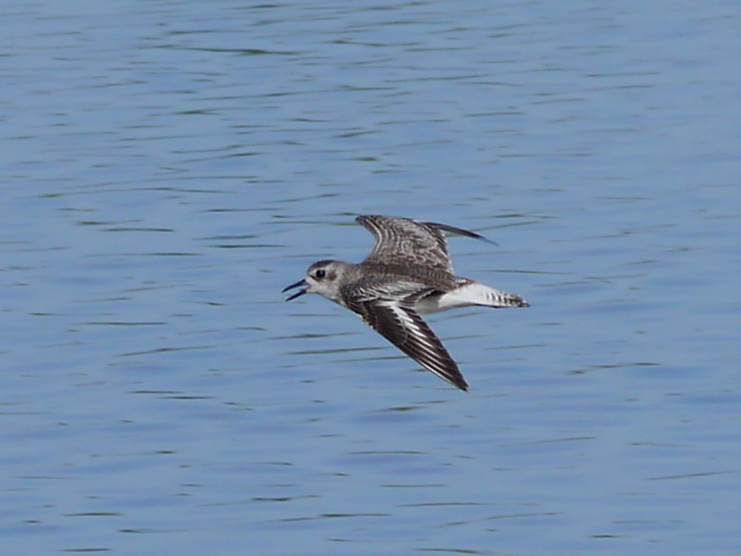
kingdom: Animalia
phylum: Chordata
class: Aves
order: Charadriiformes
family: Charadriidae
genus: Pluvialis
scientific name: Pluvialis squatarola
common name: Grey plover
